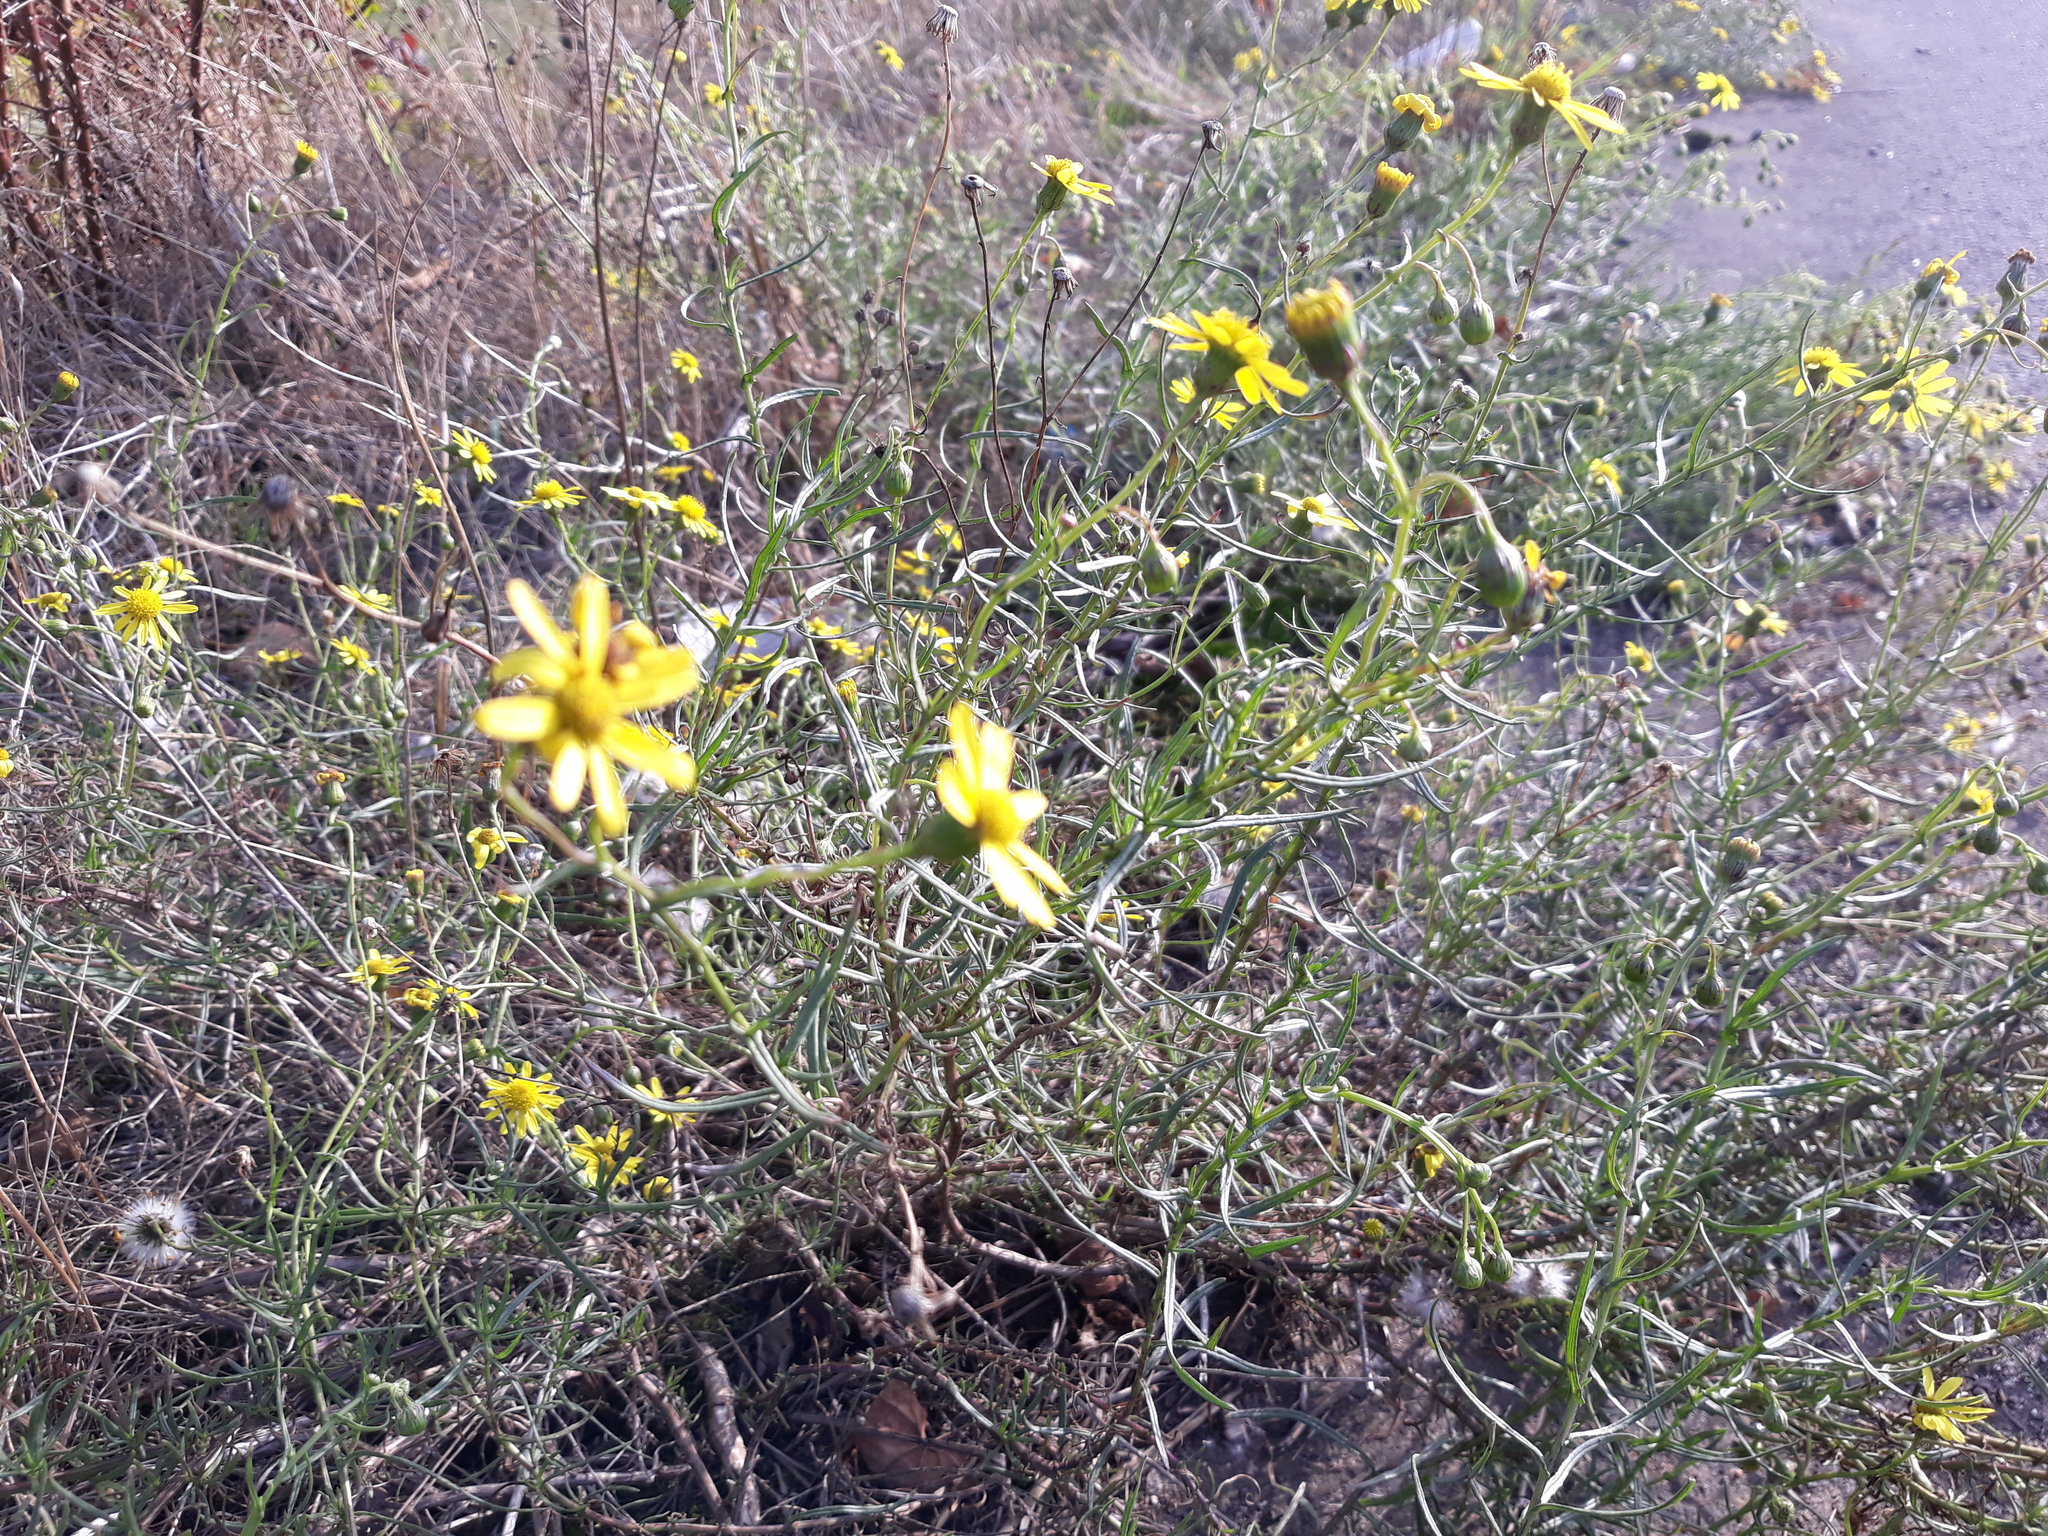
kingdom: Plantae
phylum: Tracheophyta
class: Magnoliopsida
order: Asterales
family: Asteraceae
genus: Senecio
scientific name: Senecio inaequidens
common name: Narrow-leaved ragwort
